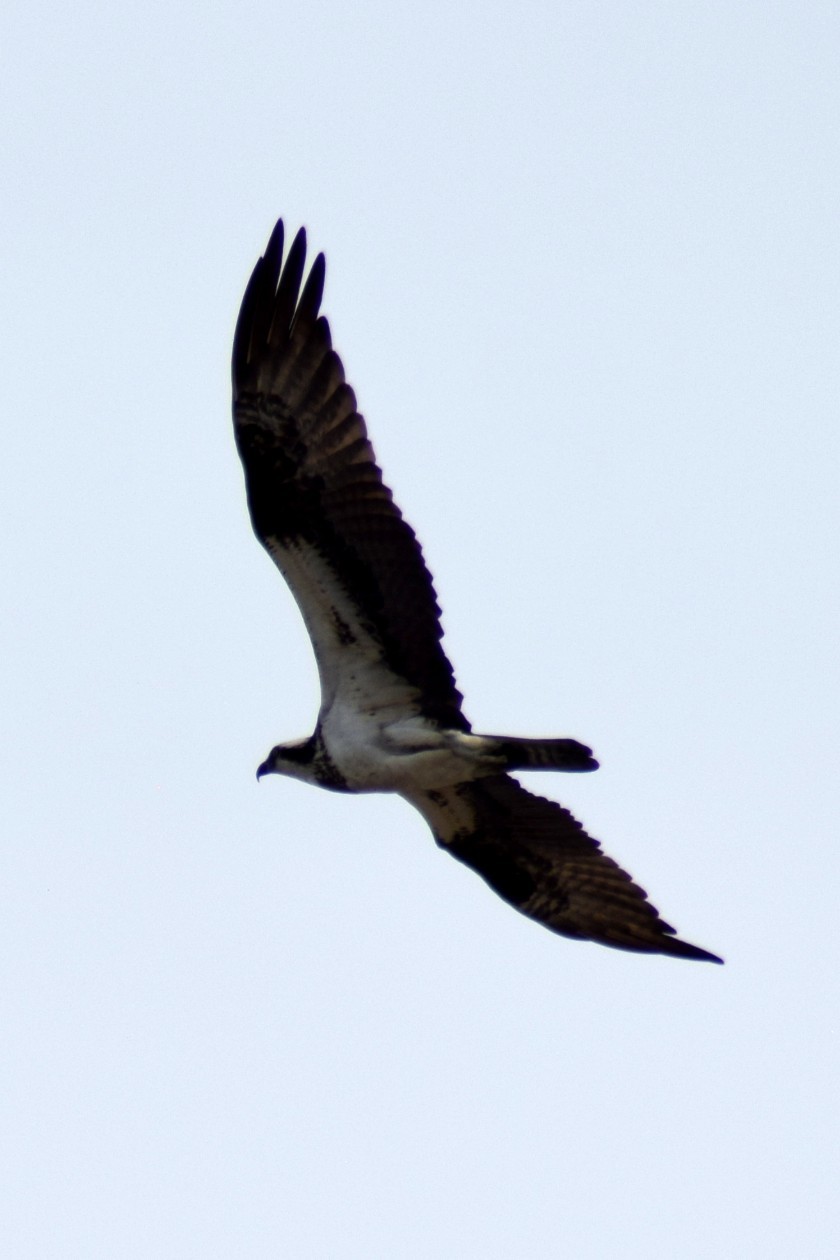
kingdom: Animalia
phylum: Chordata
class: Aves
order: Accipitriformes
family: Pandionidae
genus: Pandion
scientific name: Pandion haliaetus
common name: Osprey
